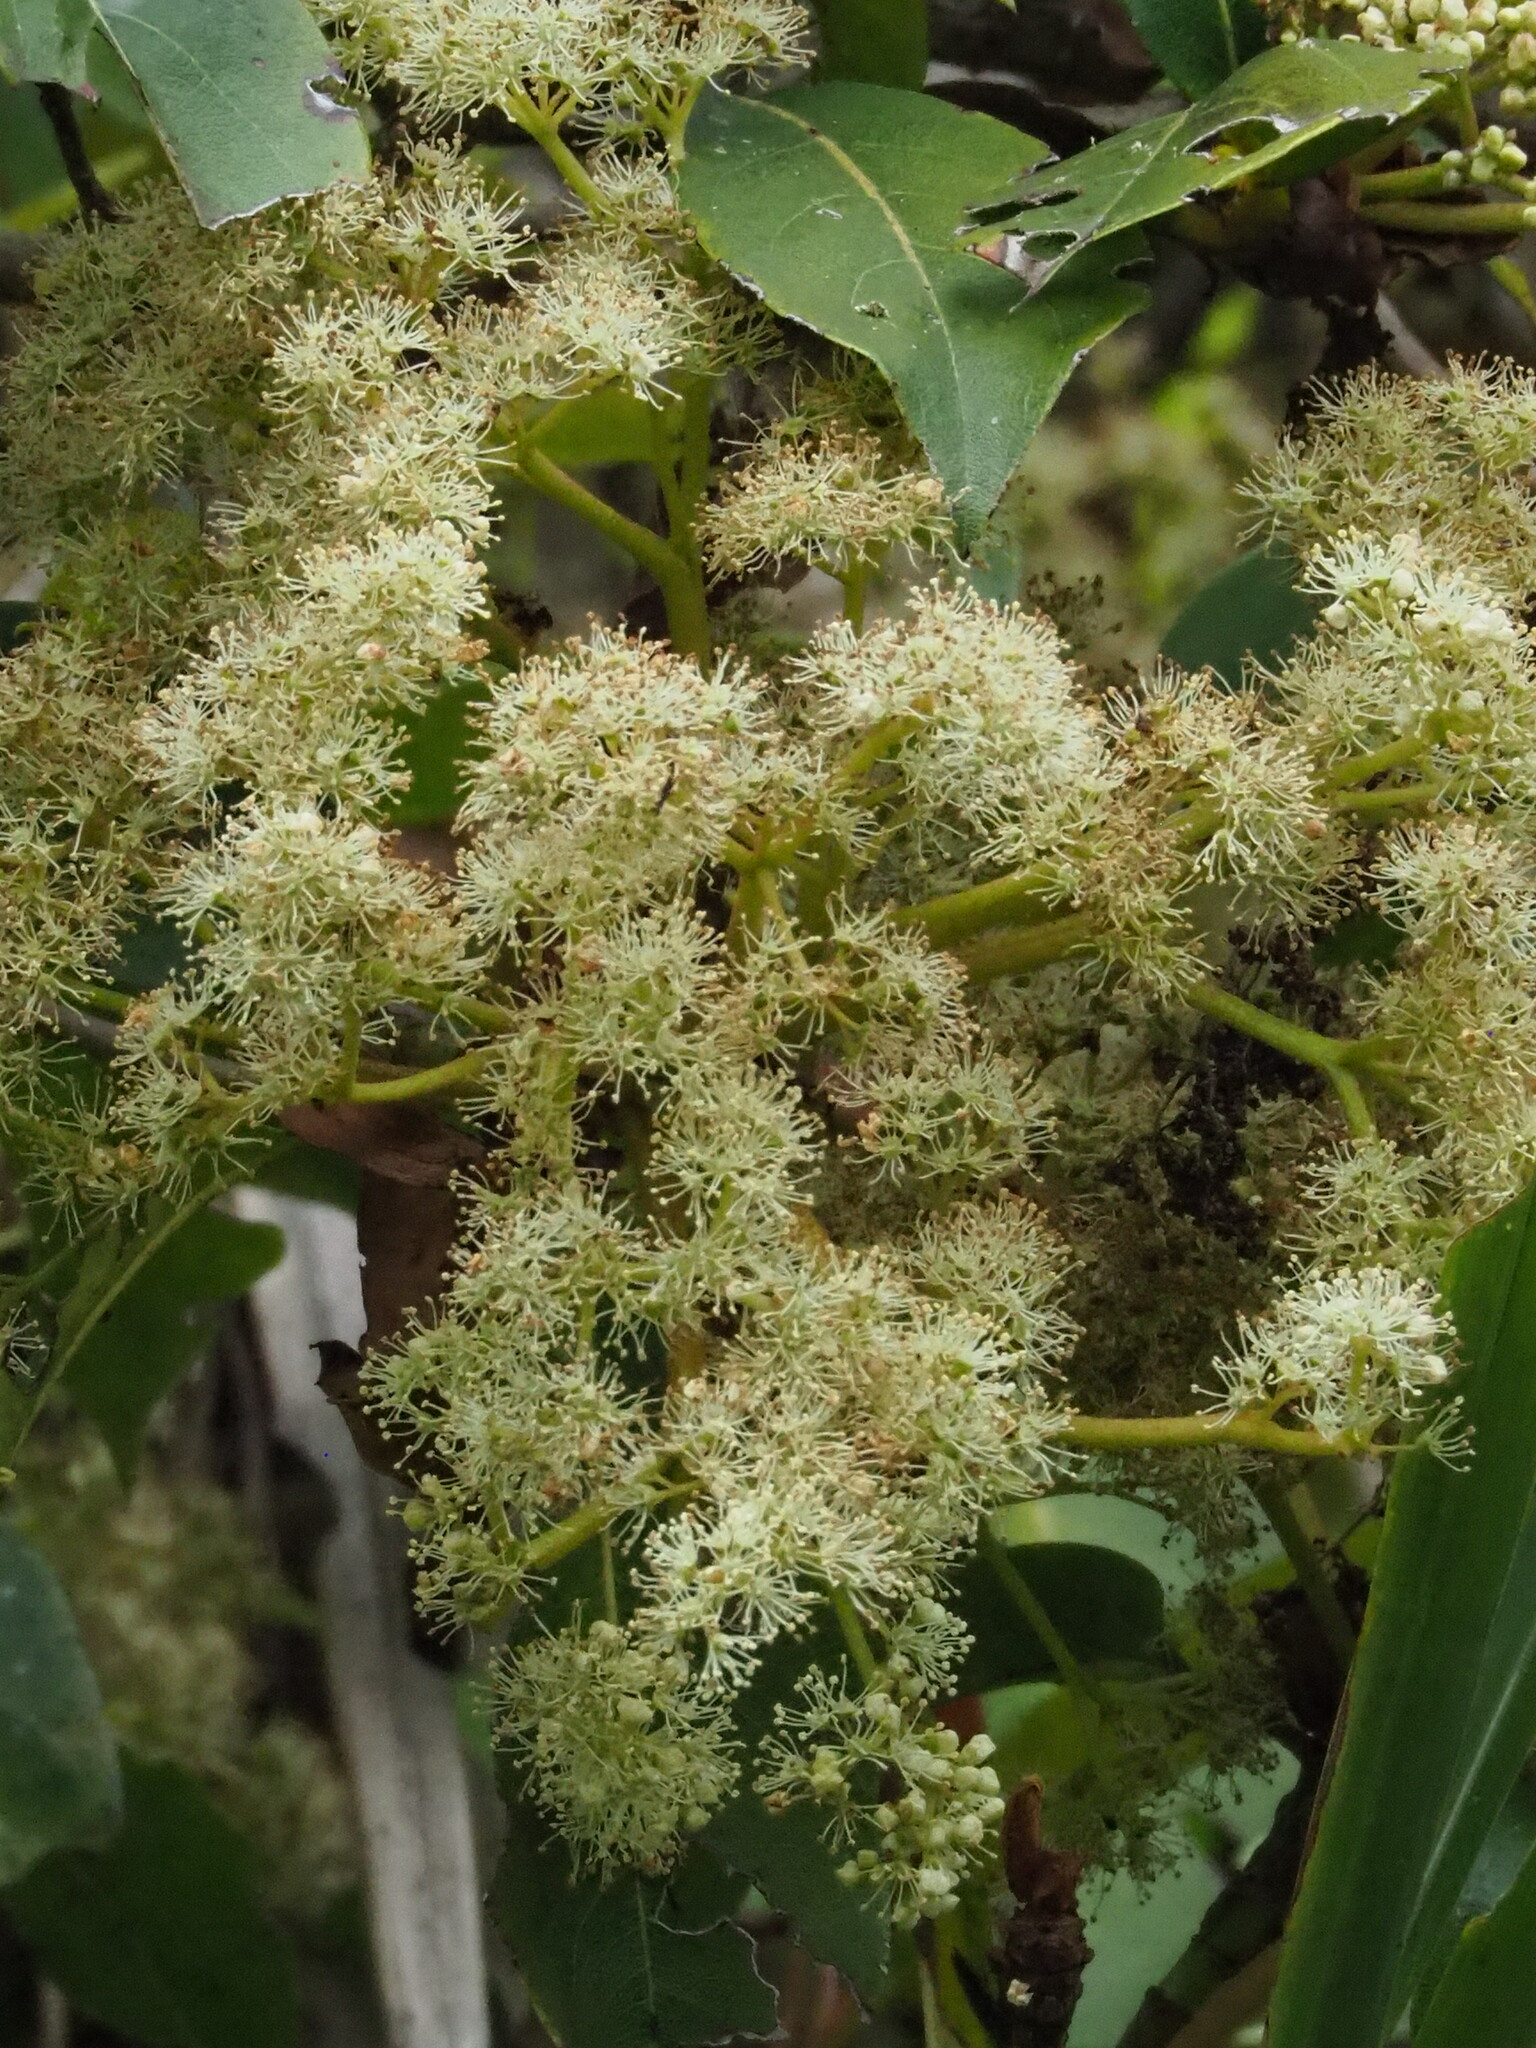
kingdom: Plantae
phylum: Tracheophyta
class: Magnoliopsida
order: Cornales
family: Hydrangeaceae
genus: Hydrangea
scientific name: Hydrangea integrifolia
